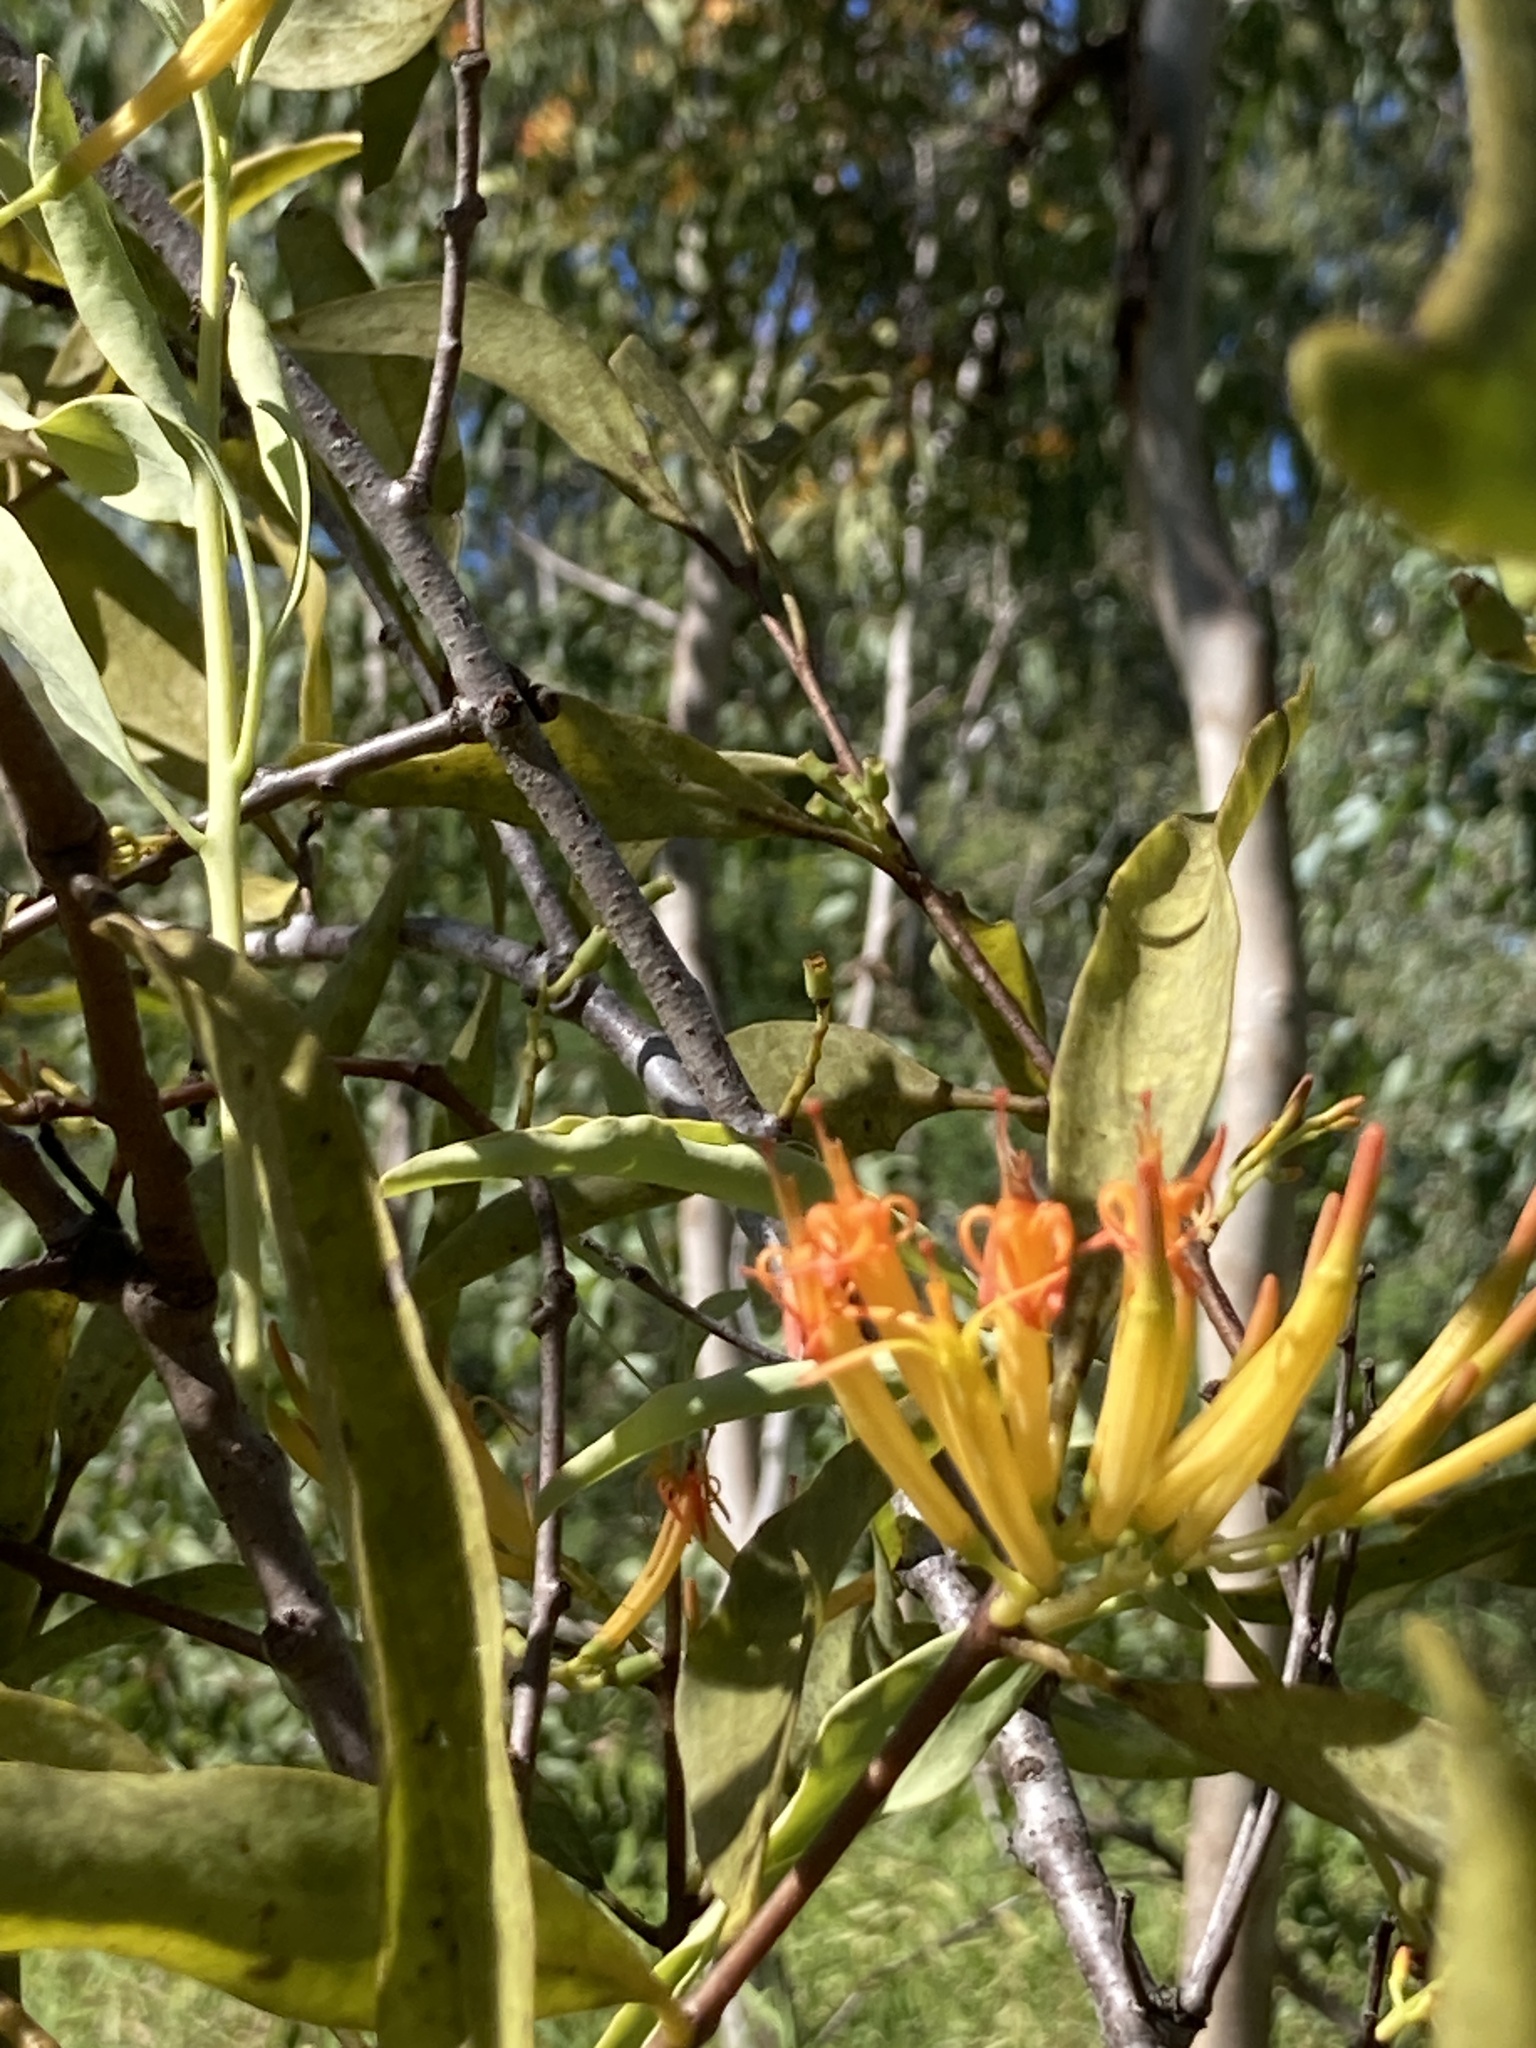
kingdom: Plantae
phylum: Tracheophyta
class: Magnoliopsida
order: Santalales
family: Loranthaceae
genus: Dendrophthoe
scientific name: Dendrophthoe glabrescens
